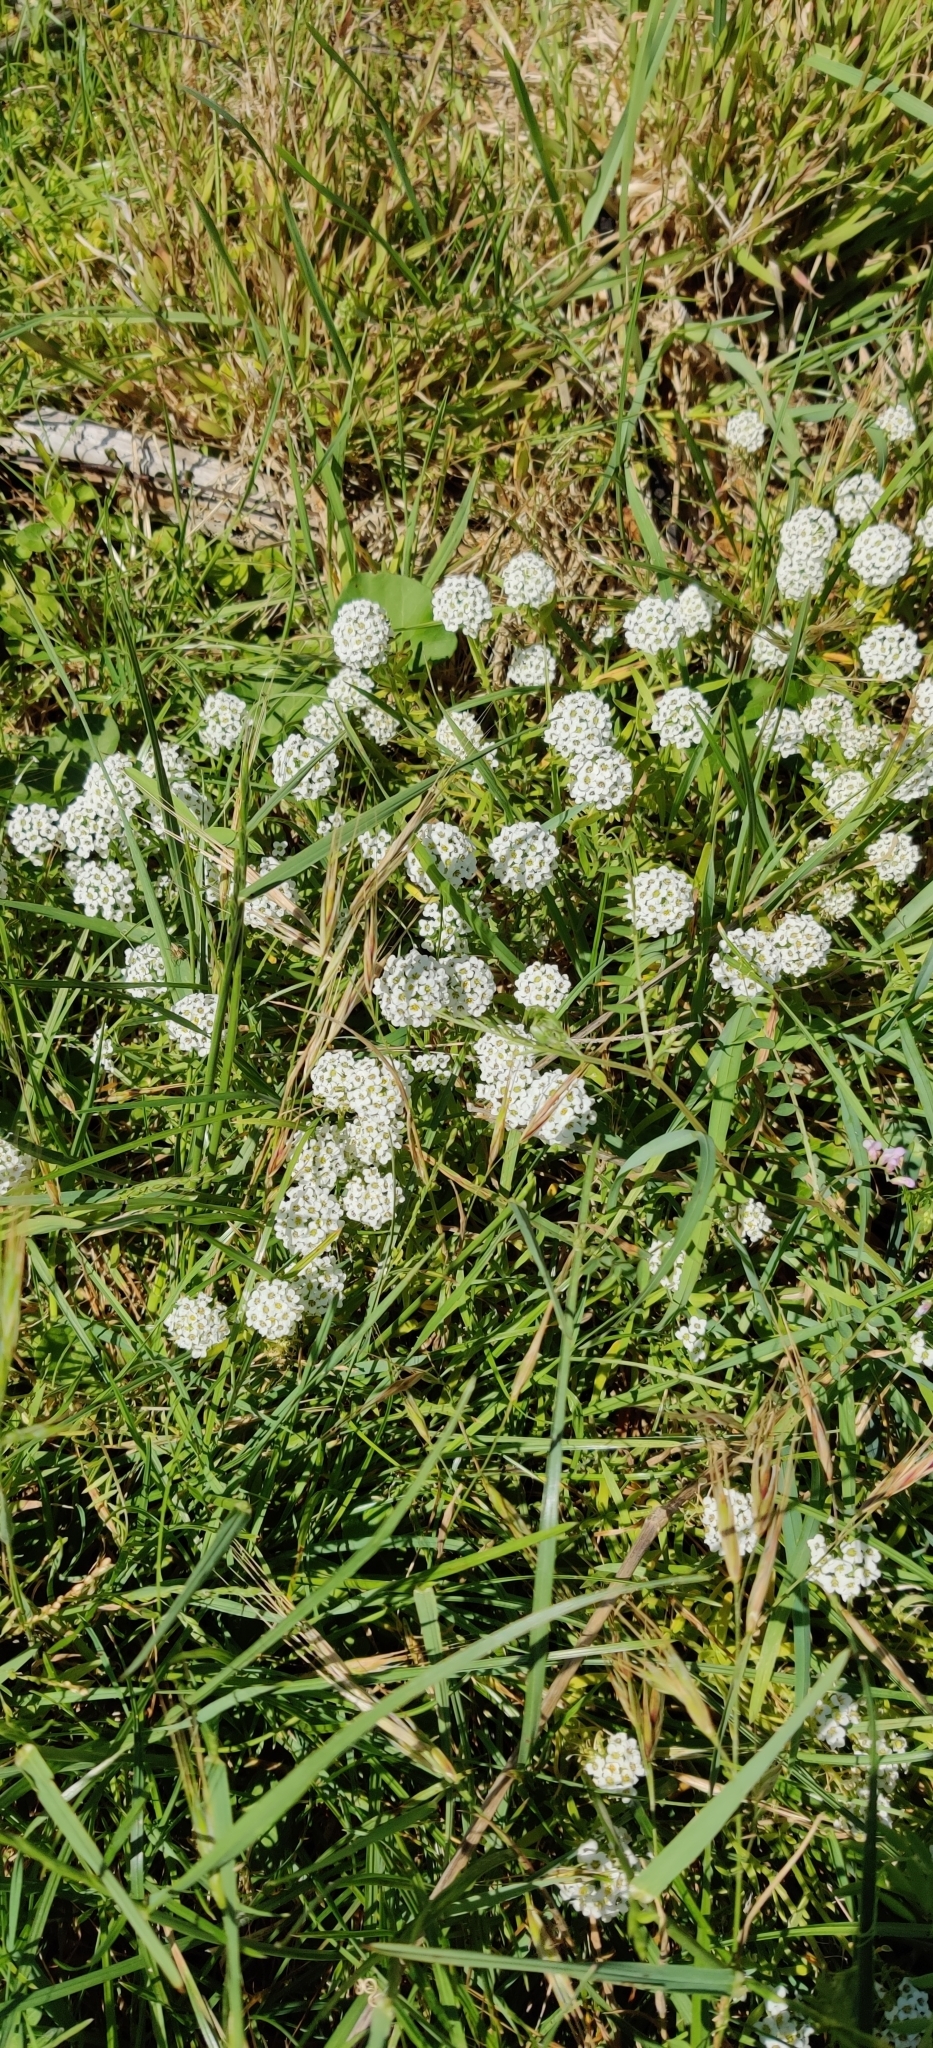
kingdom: Plantae
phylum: Tracheophyta
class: Magnoliopsida
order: Brassicales
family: Brassicaceae
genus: Lobularia
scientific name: Lobularia maritima
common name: Sweet alison
